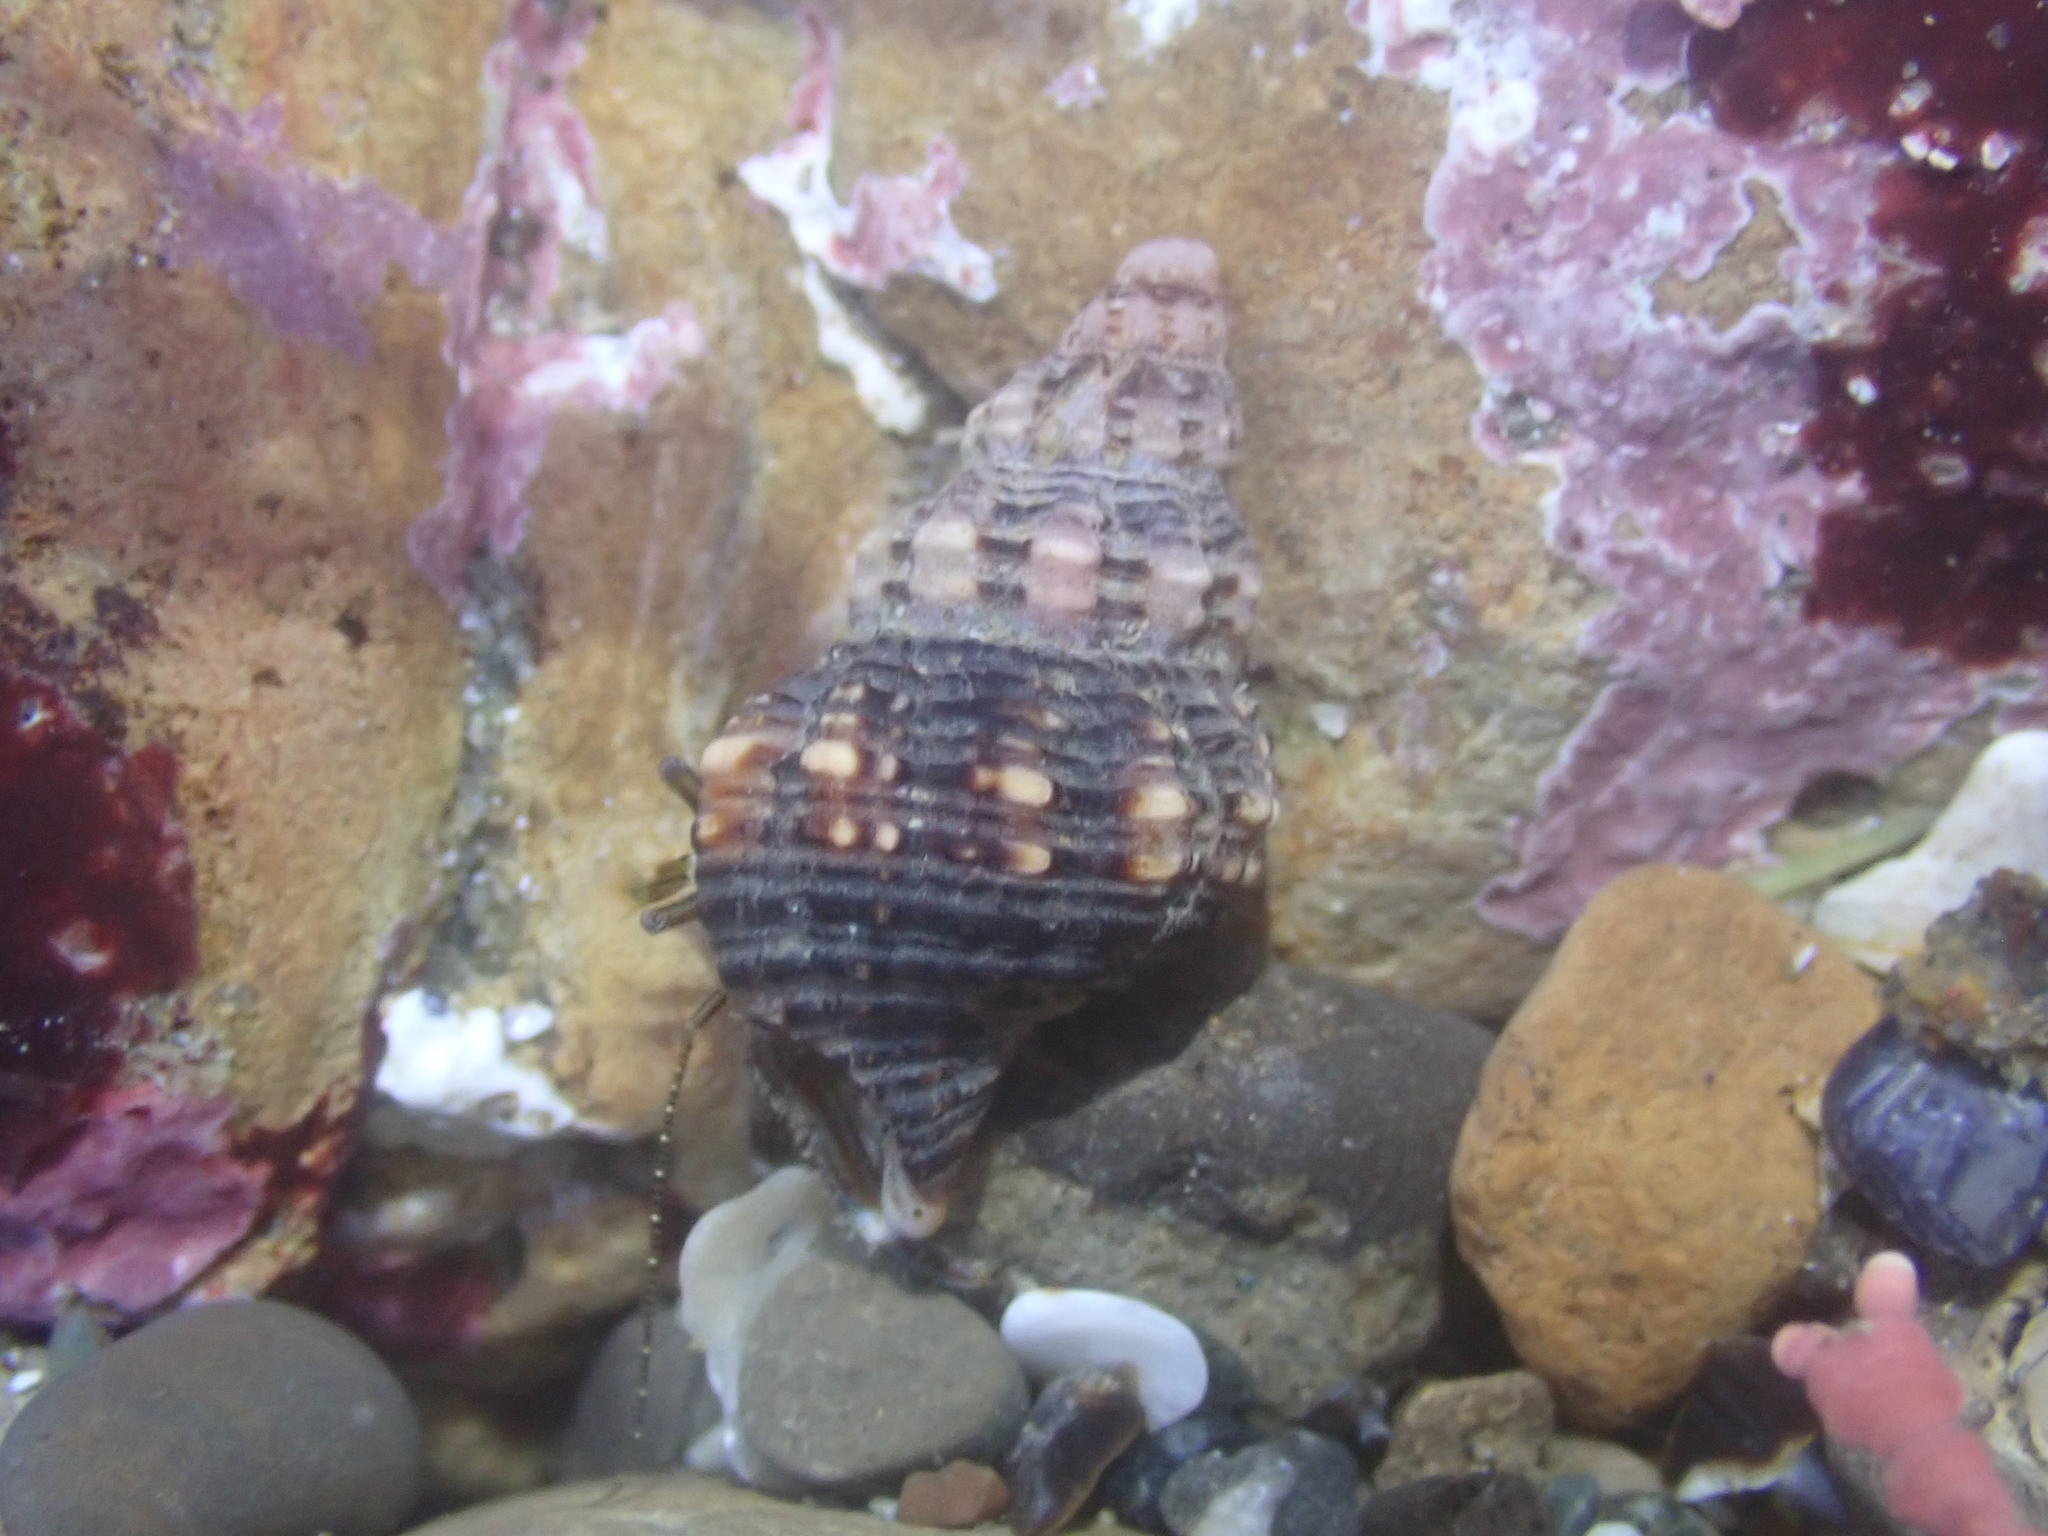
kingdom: Animalia
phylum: Mollusca
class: Gastropoda
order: Neogastropoda
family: Fasciolariidae
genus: Hesperaptyxis
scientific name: Hesperaptyxis luteopictus
